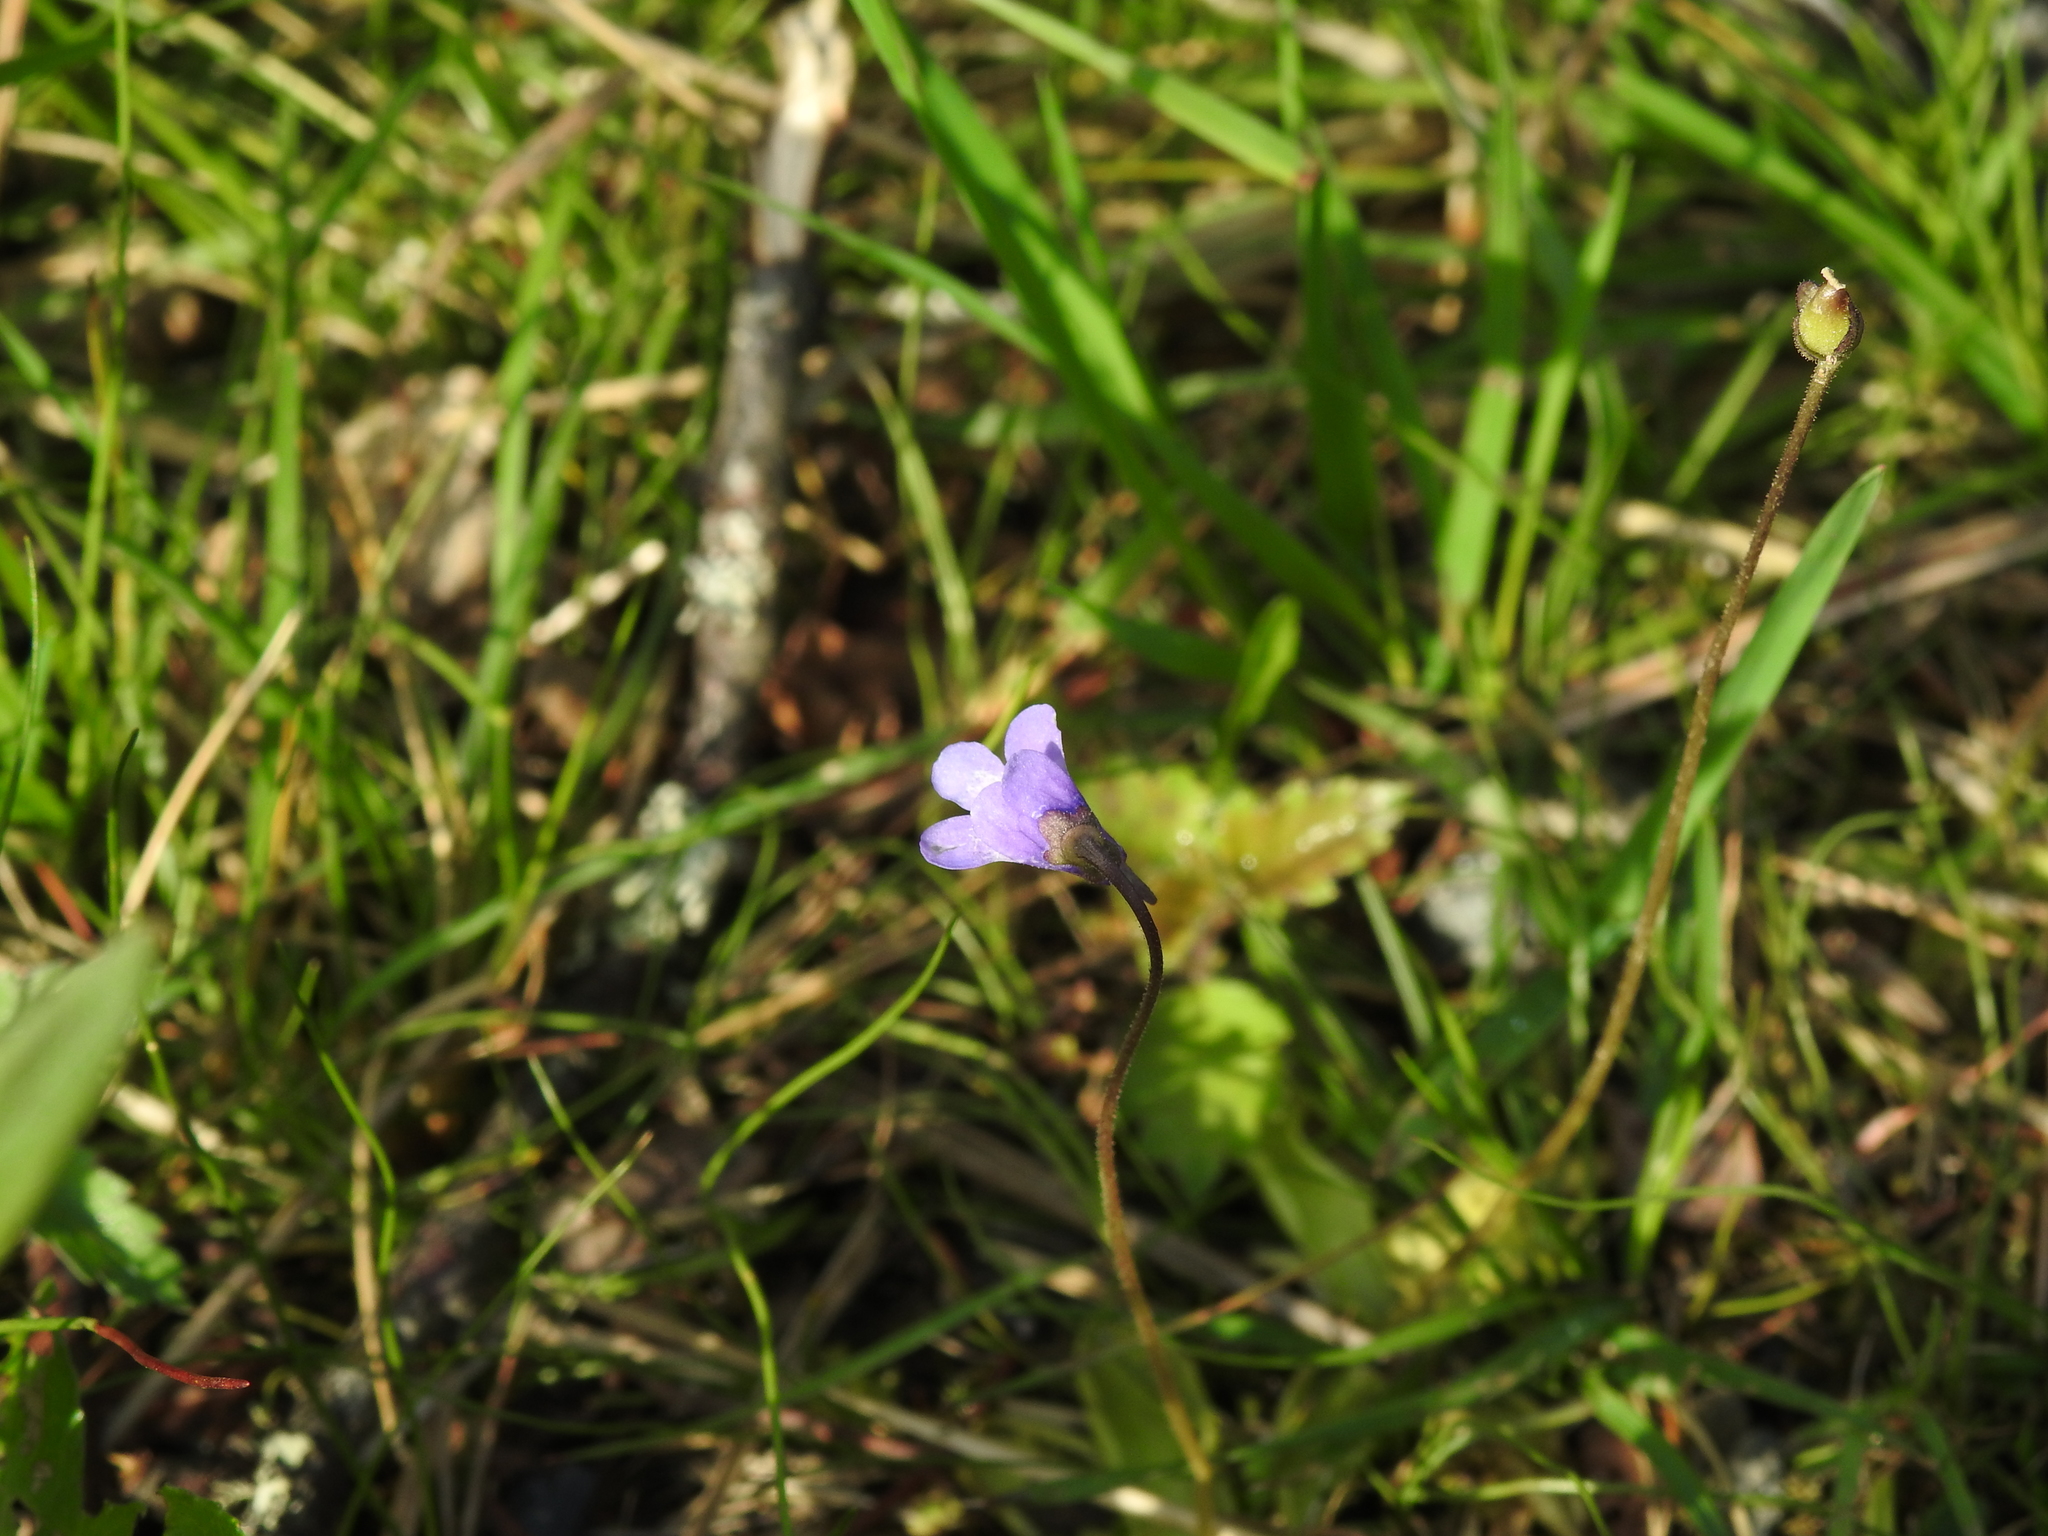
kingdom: Plantae
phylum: Tracheophyta
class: Magnoliopsida
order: Lamiales
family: Lentibulariaceae
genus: Pinguicula
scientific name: Pinguicula vulgaris
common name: Common butterwort
